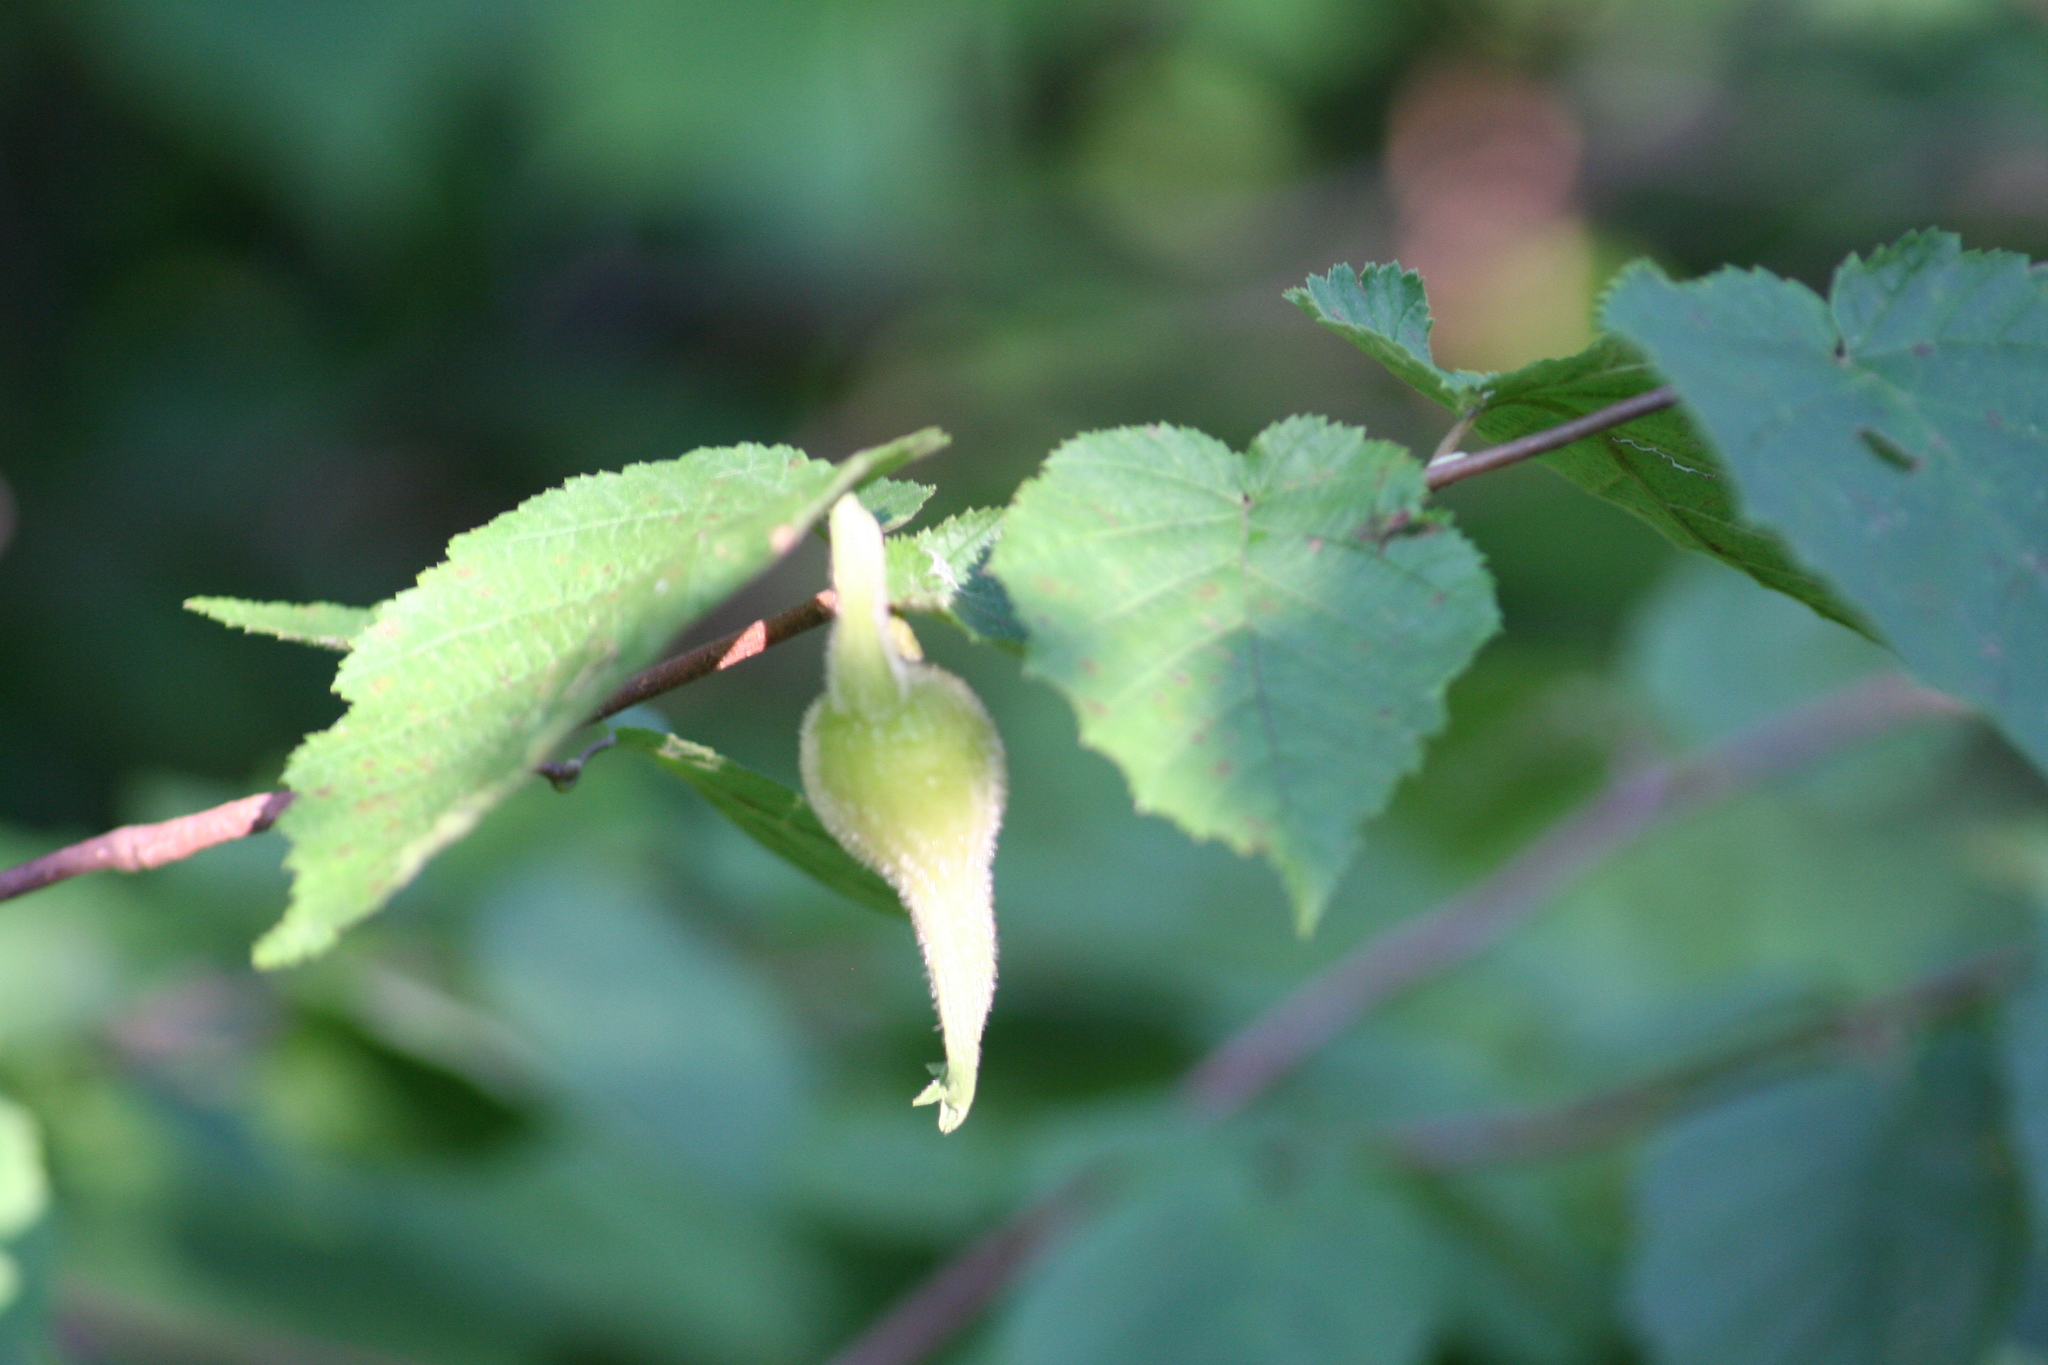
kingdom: Plantae
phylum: Tracheophyta
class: Magnoliopsida
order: Fagales
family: Betulaceae
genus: Corylus
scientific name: Corylus cornuta
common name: Beaked hazel
